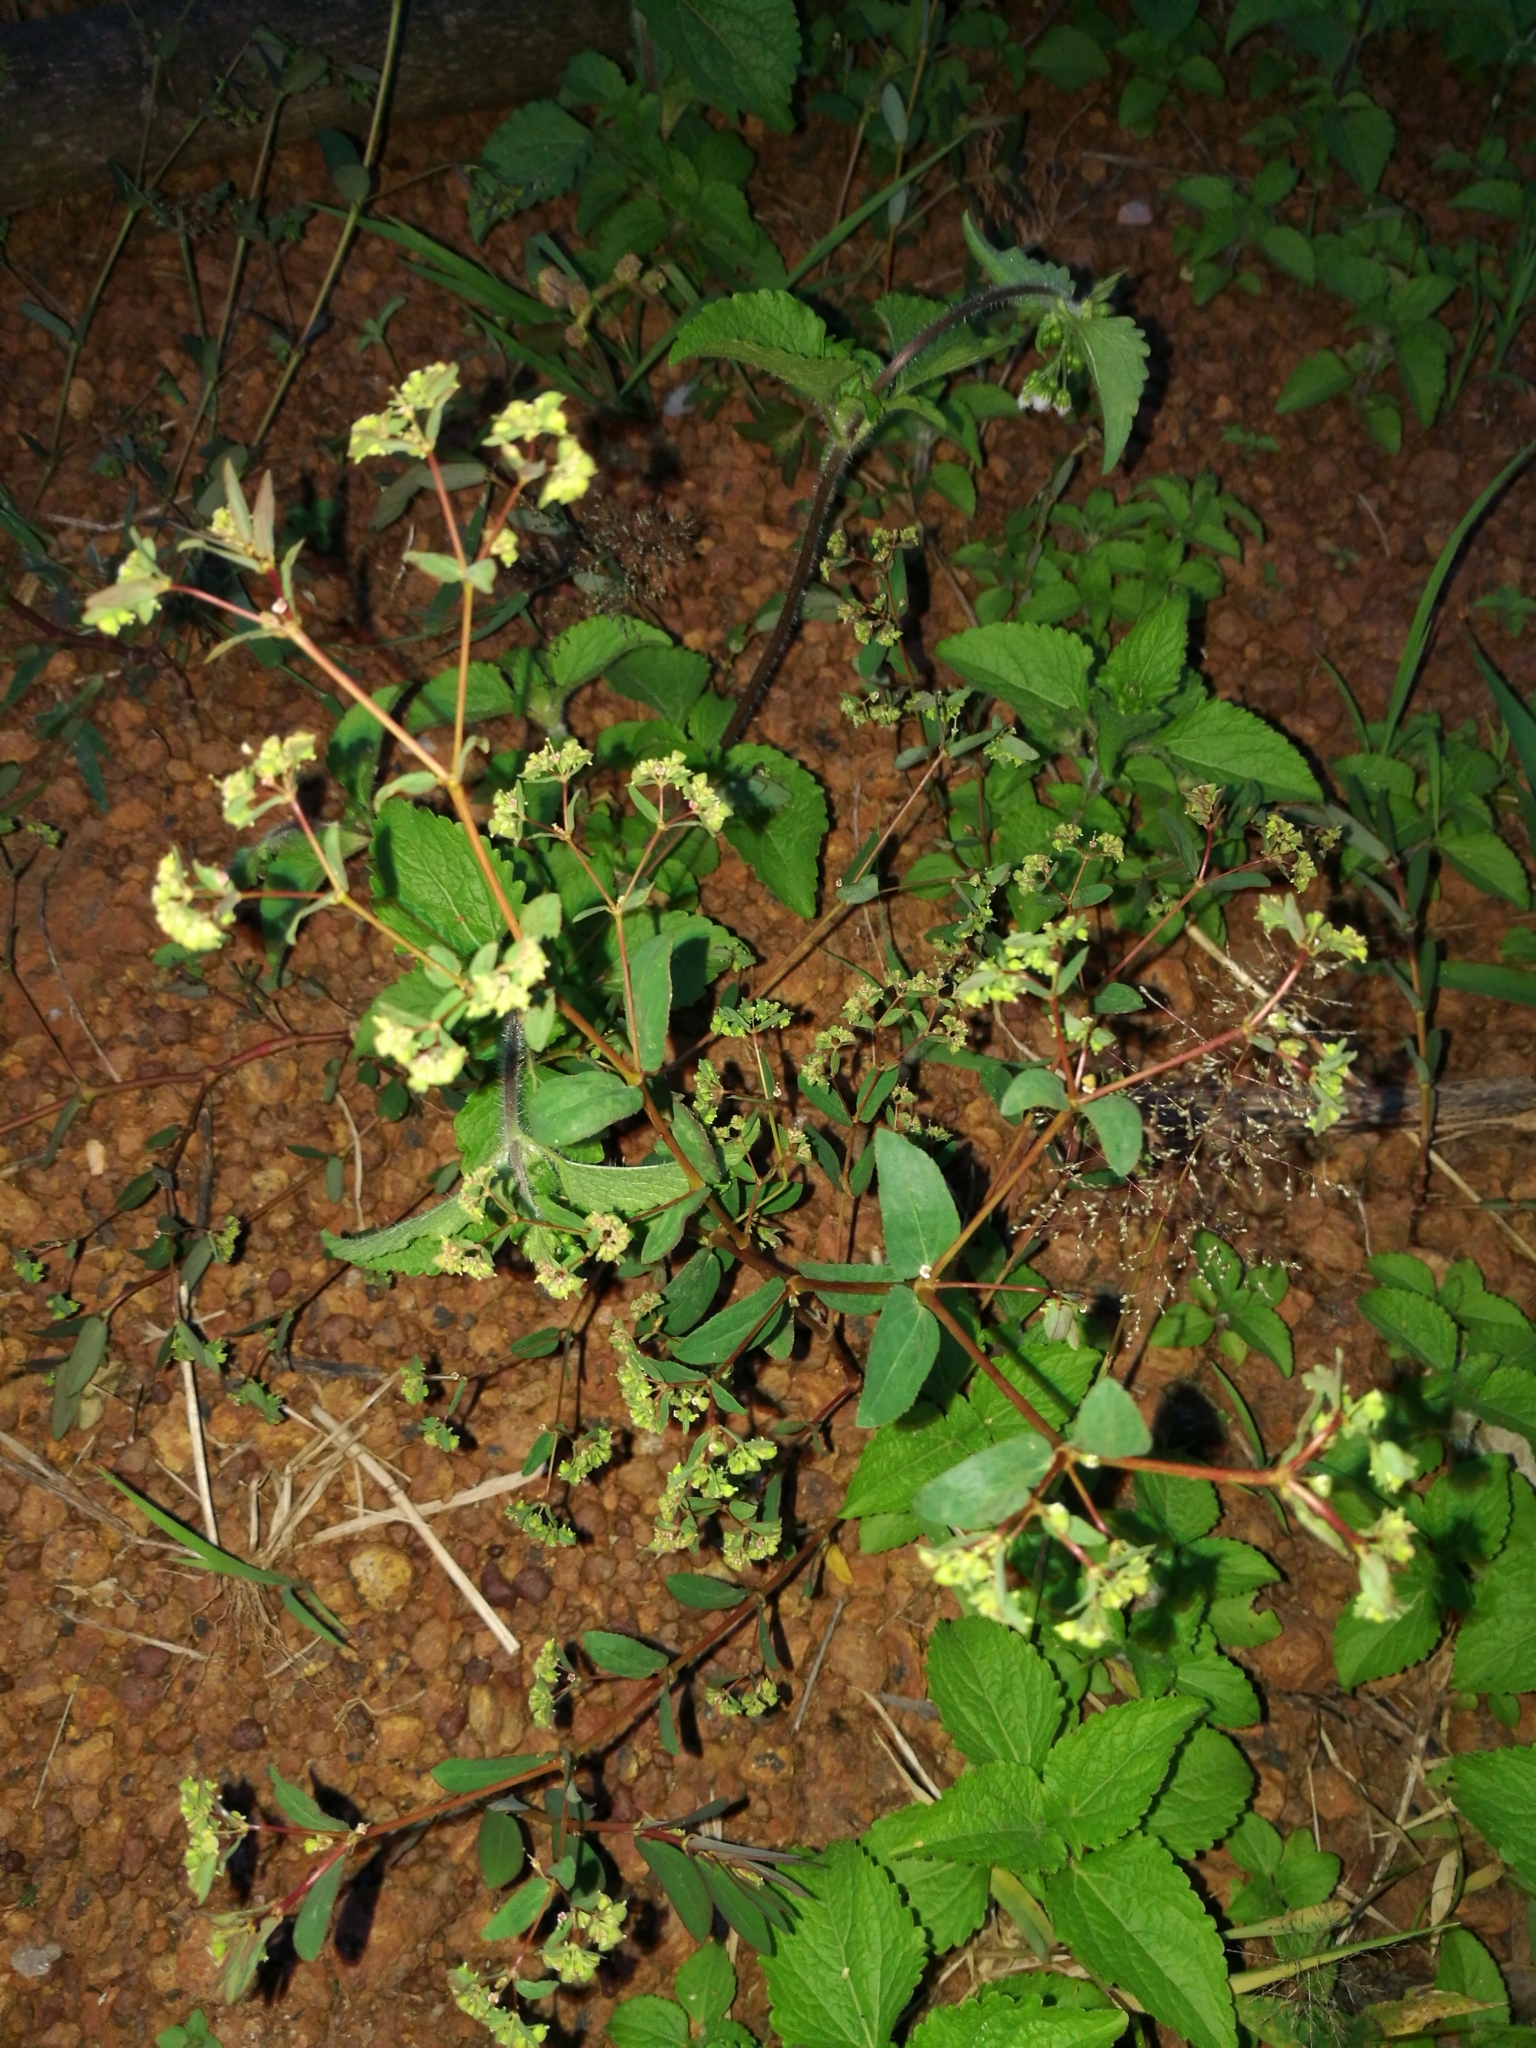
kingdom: Plantae
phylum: Tracheophyta
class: Magnoliopsida
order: Malpighiales
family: Euphorbiaceae
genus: Euphorbia
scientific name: Euphorbia hyssopifolia
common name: Hyssopleaf sandmat
